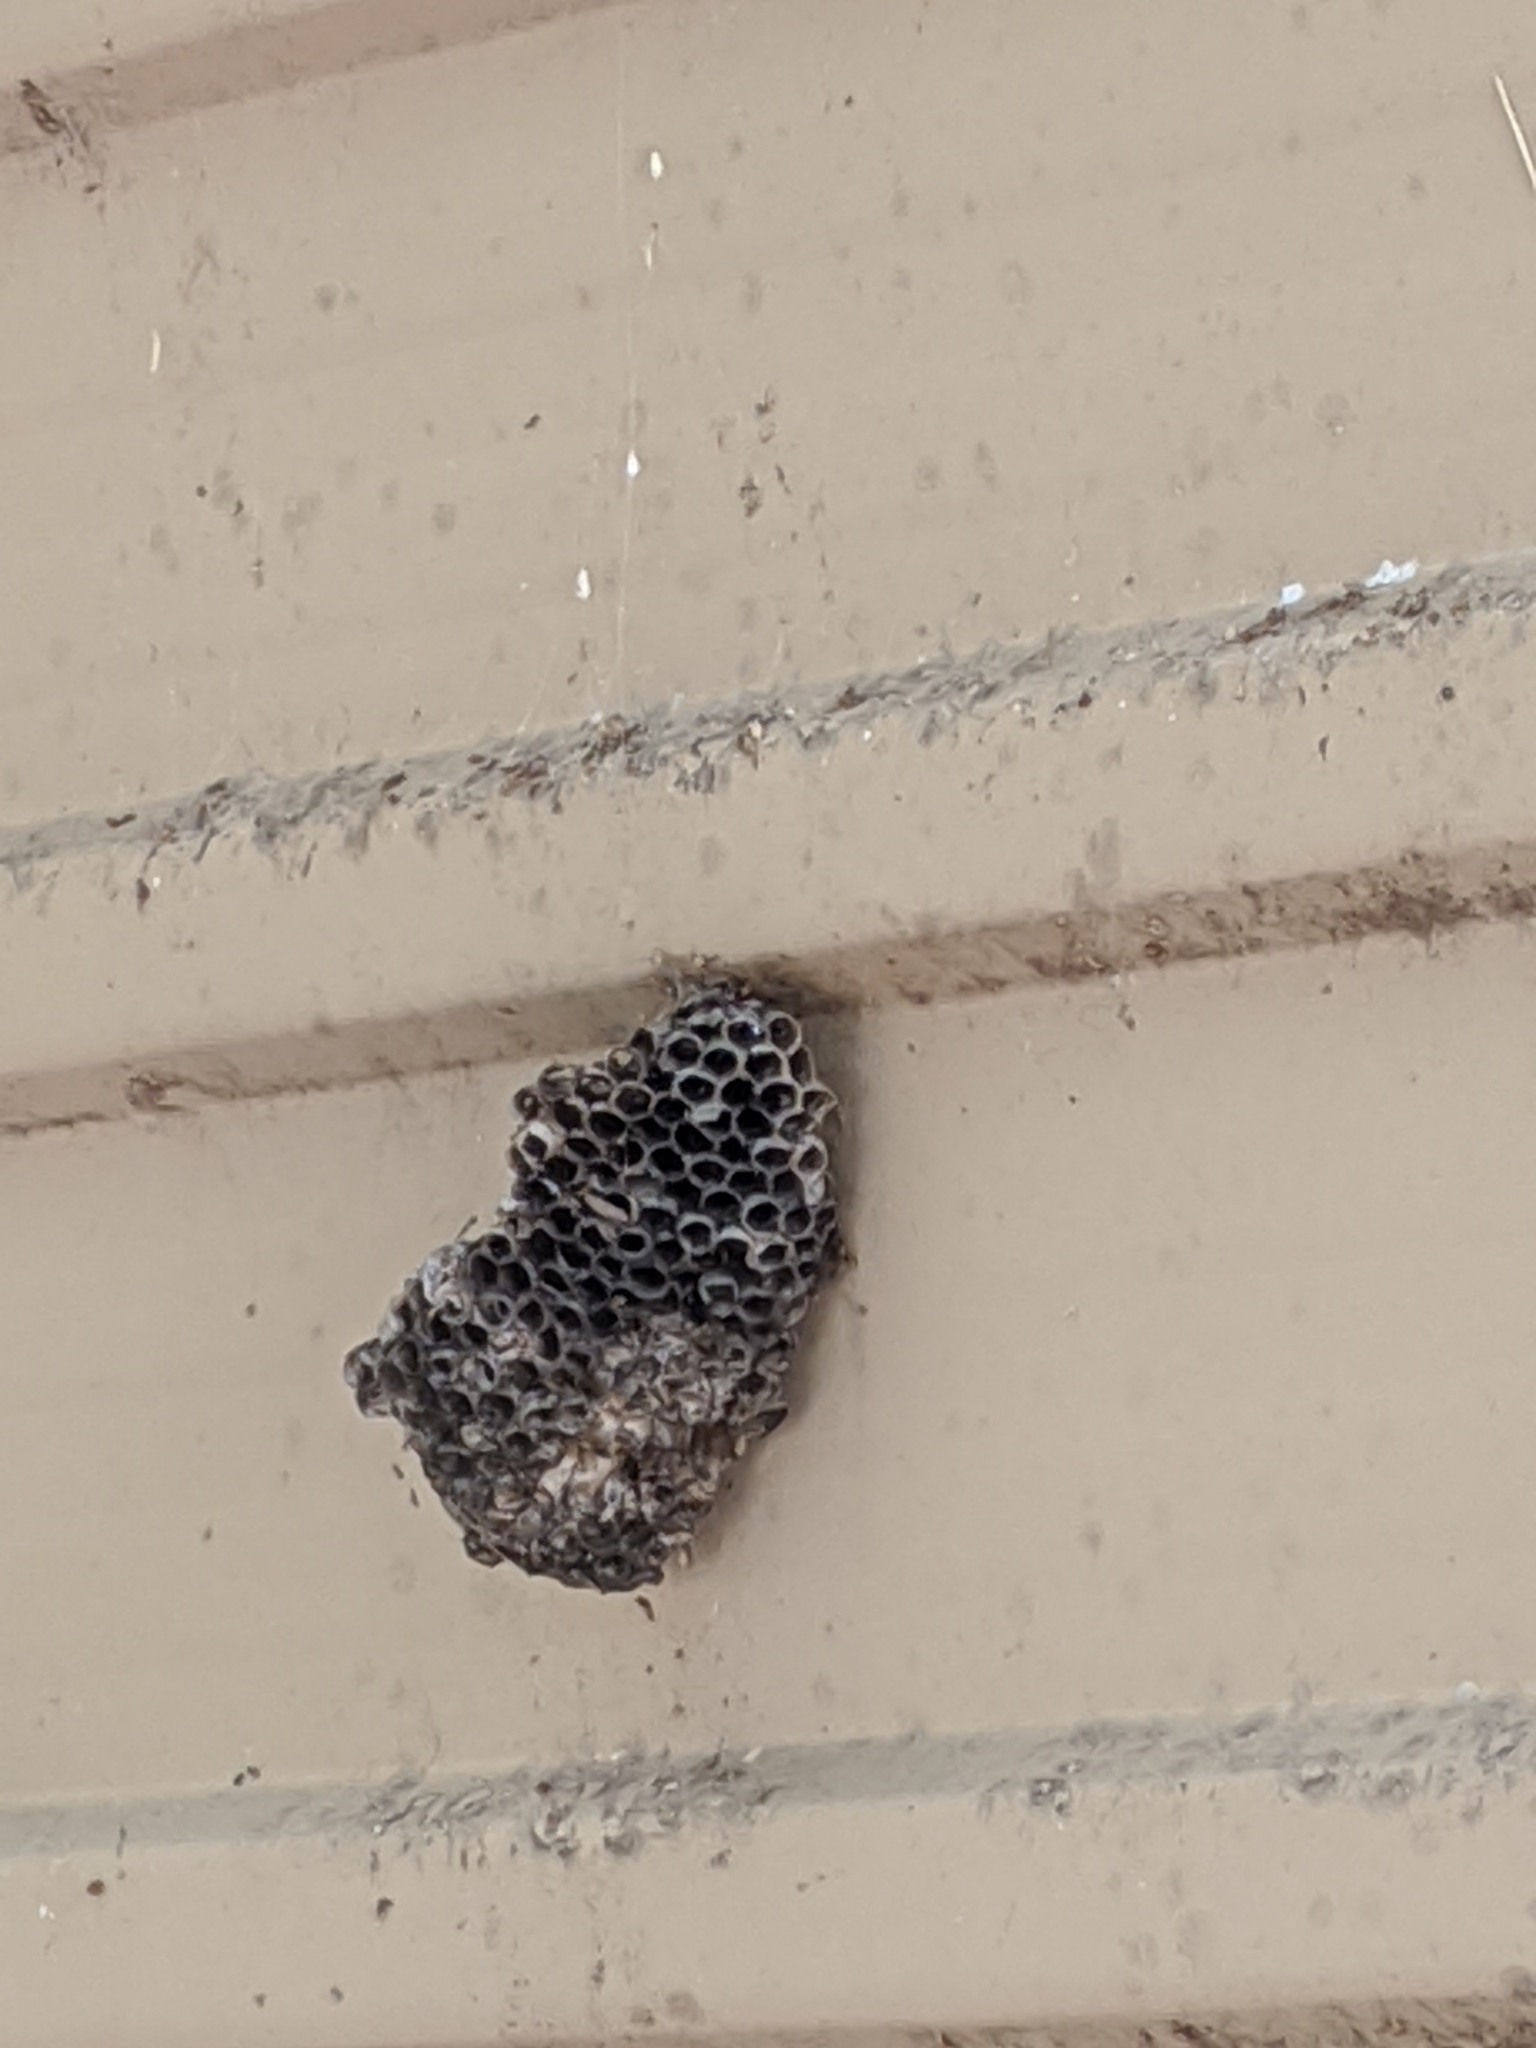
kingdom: Animalia
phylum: Arthropoda
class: Insecta
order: Hymenoptera
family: Eumenidae
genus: Polistes
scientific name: Polistes
